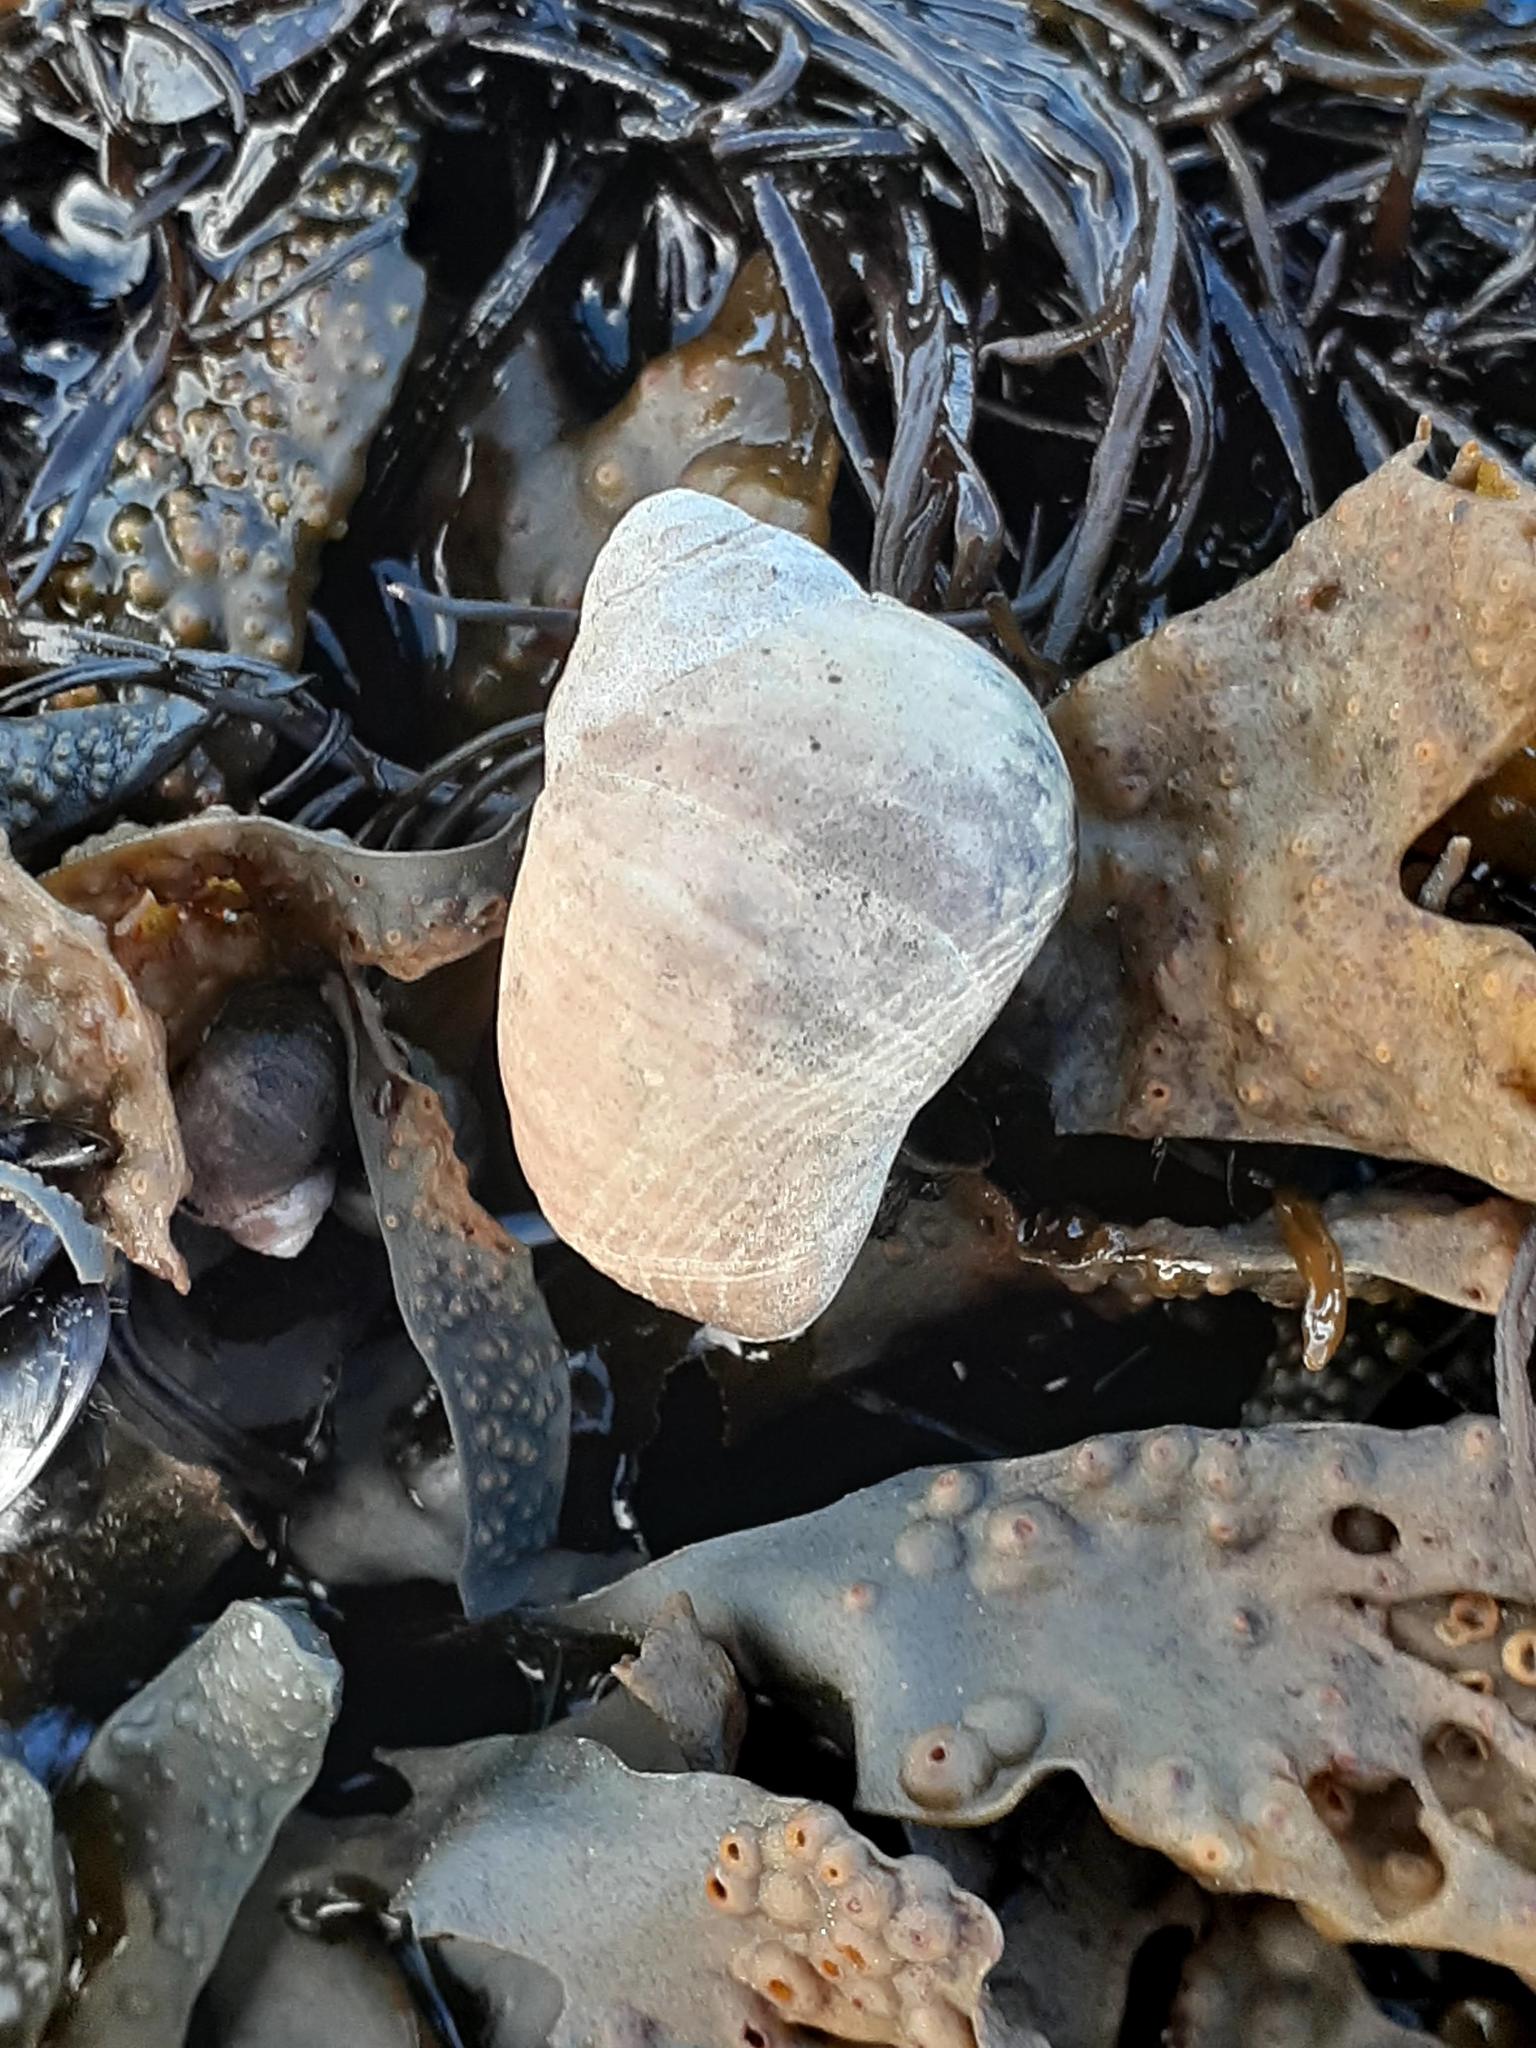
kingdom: Animalia
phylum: Mollusca
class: Gastropoda
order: Littorinimorpha
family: Littorinidae
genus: Littorina
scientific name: Littorina littorea
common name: Common periwinkle
